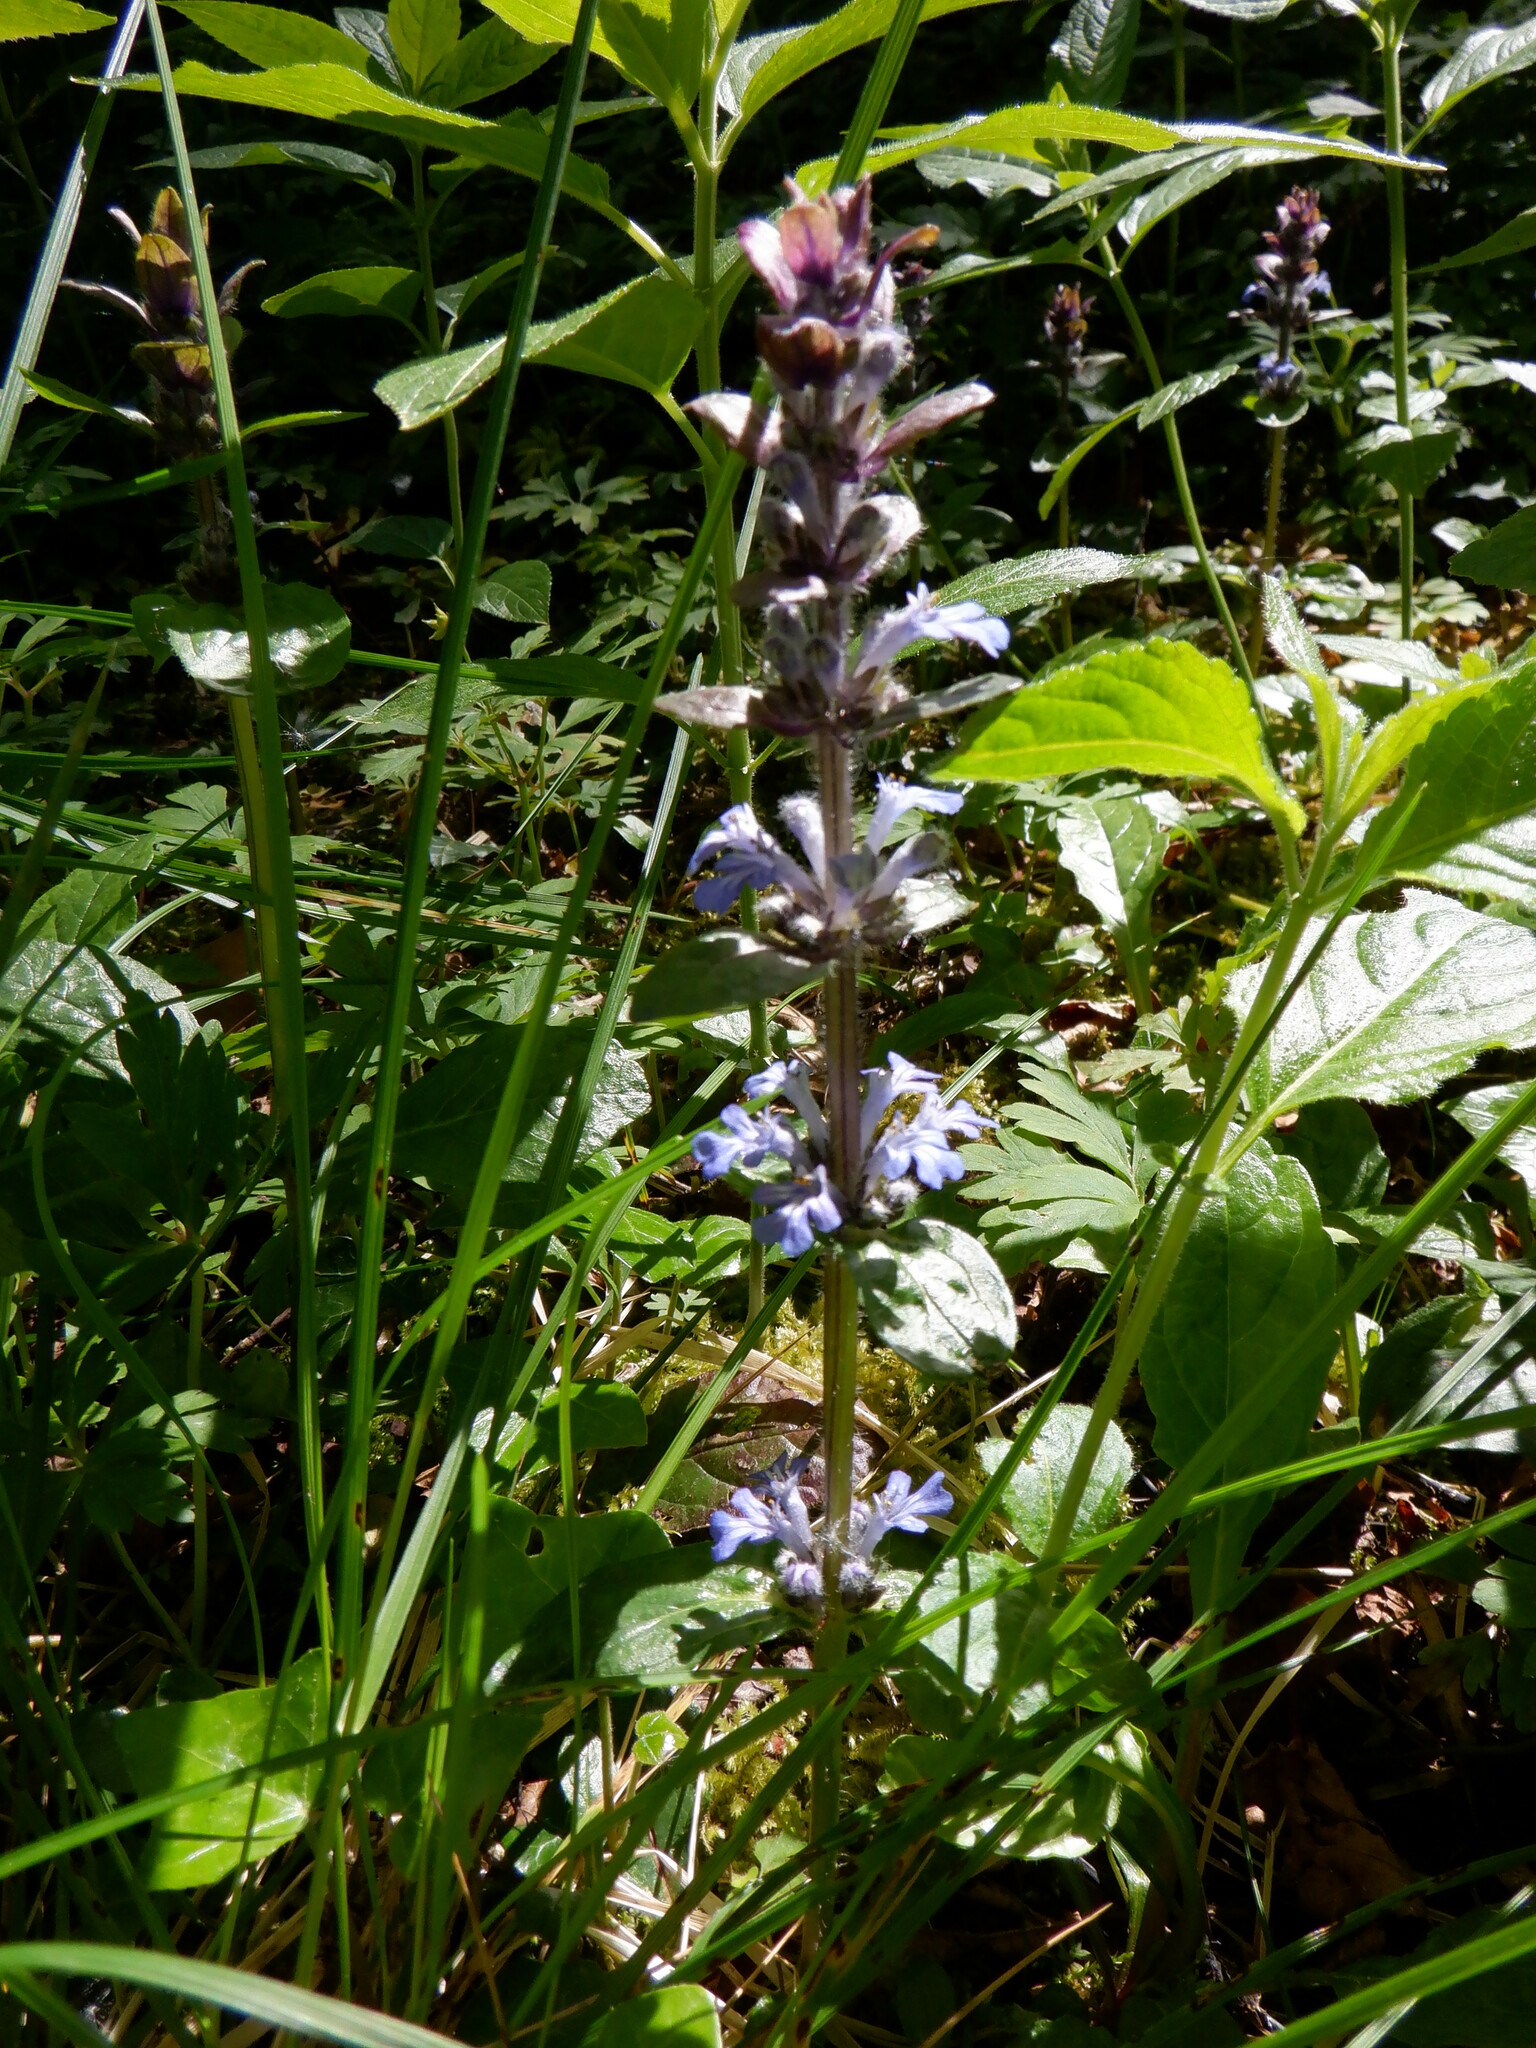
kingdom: Plantae
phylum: Tracheophyta
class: Magnoliopsida
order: Lamiales
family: Lamiaceae
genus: Ajuga
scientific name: Ajuga reptans
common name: Bugle
